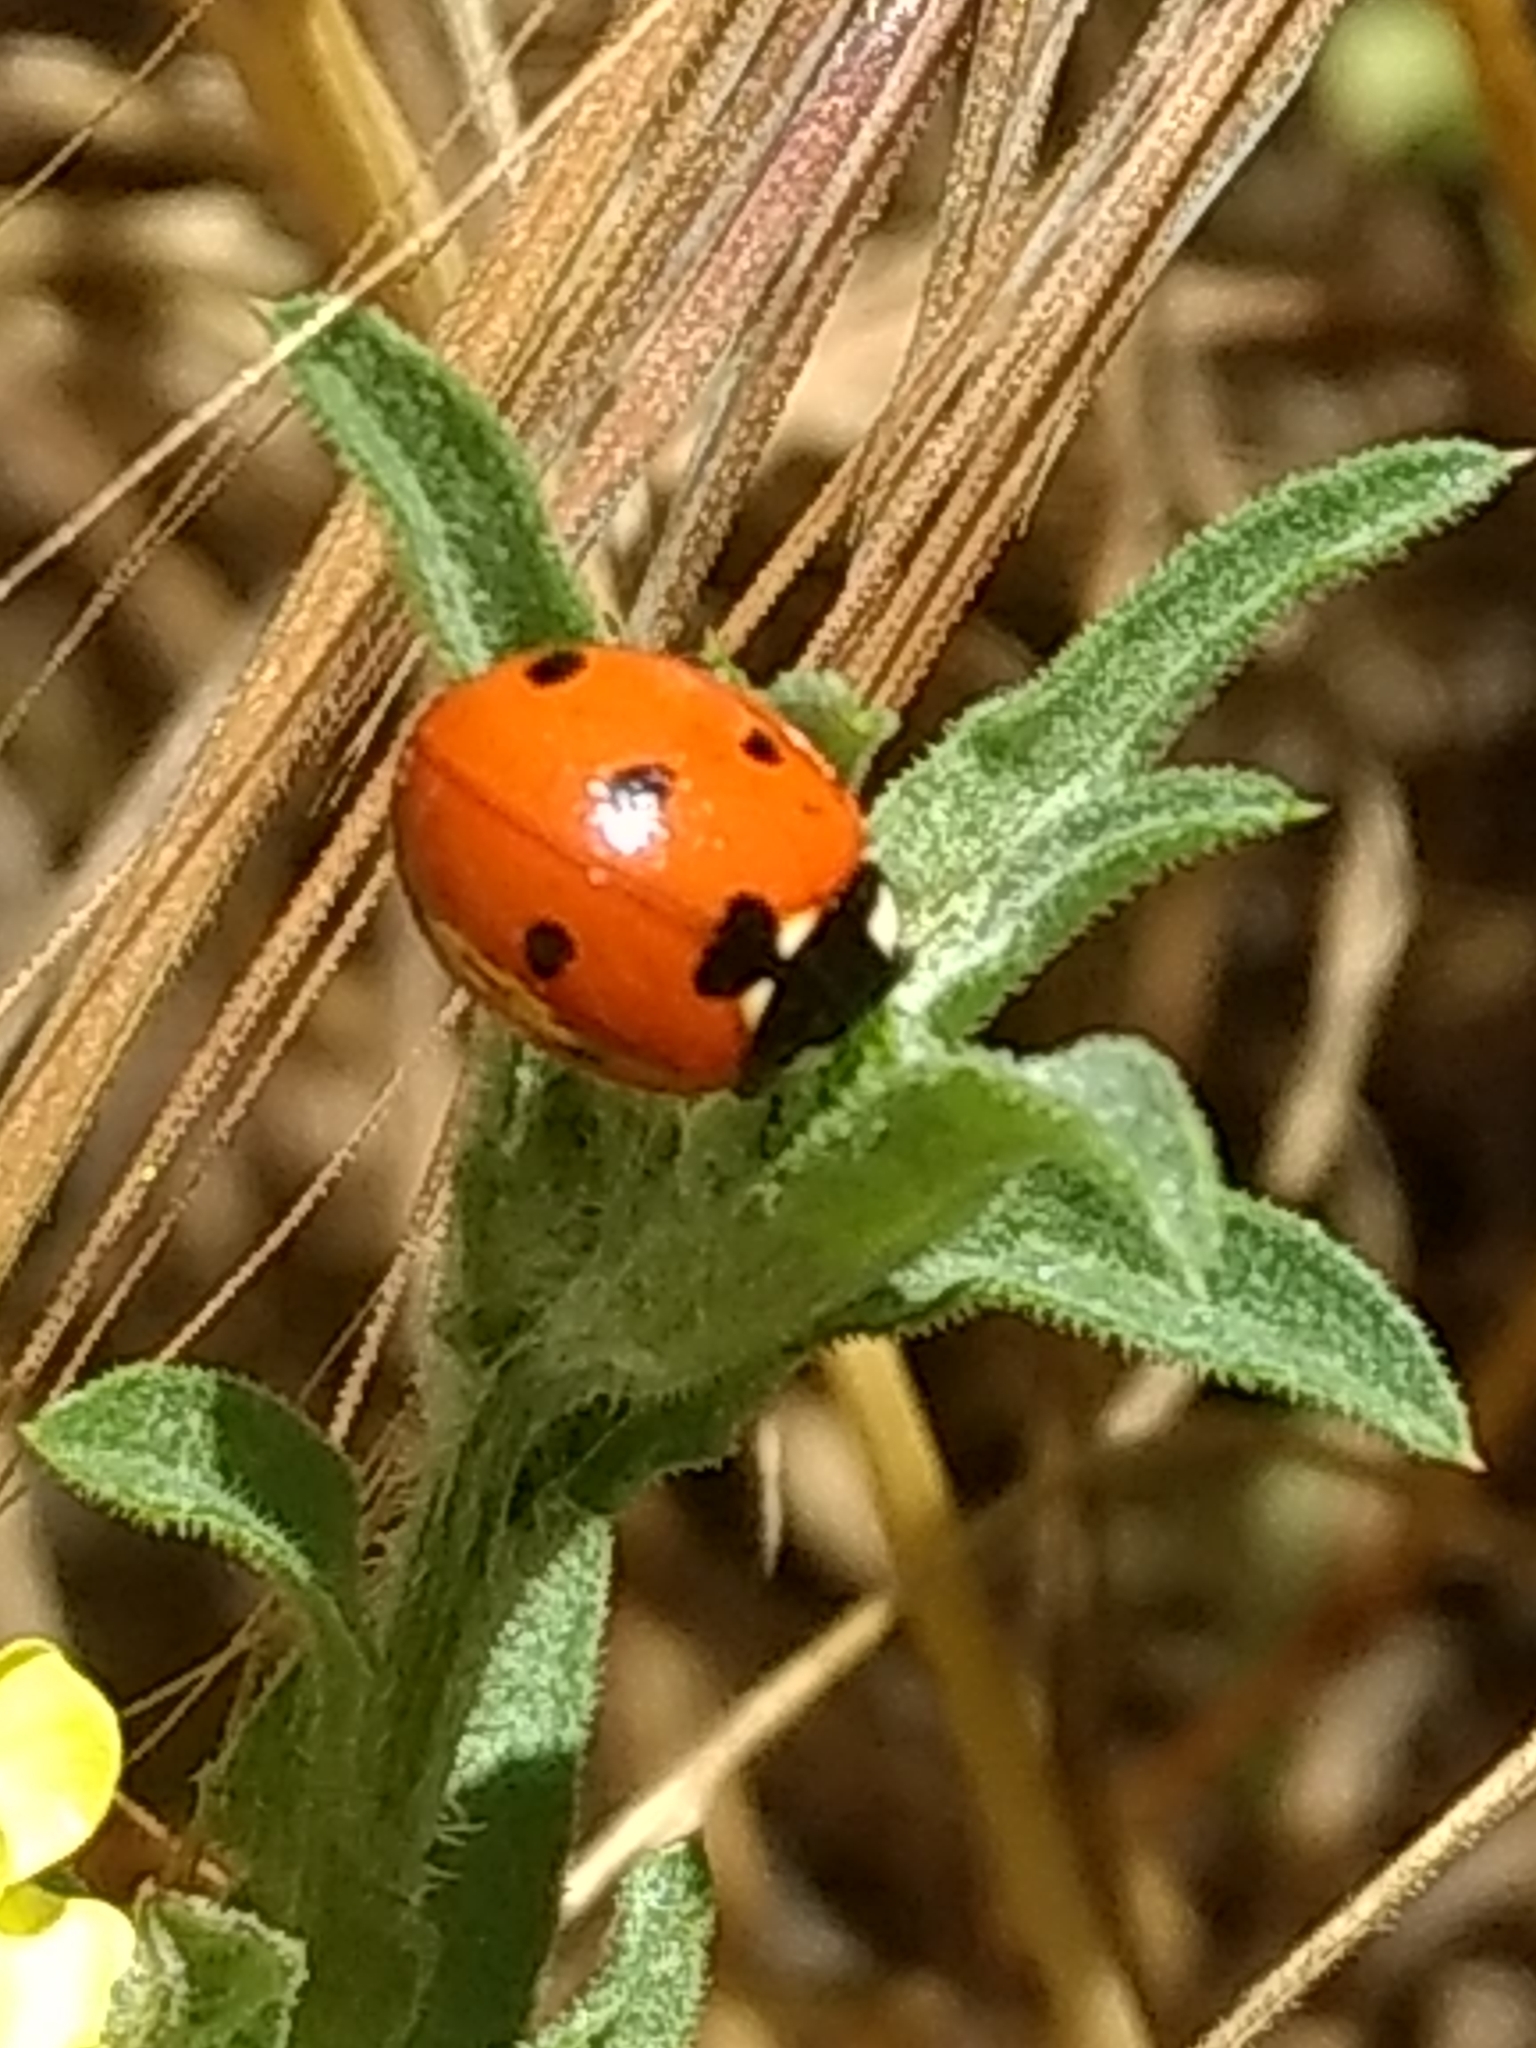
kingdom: Animalia
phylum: Arthropoda
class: Insecta
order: Coleoptera
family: Coccinellidae
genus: Coccinella
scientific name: Coccinella septempunctata
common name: Sevenspotted lady beetle
